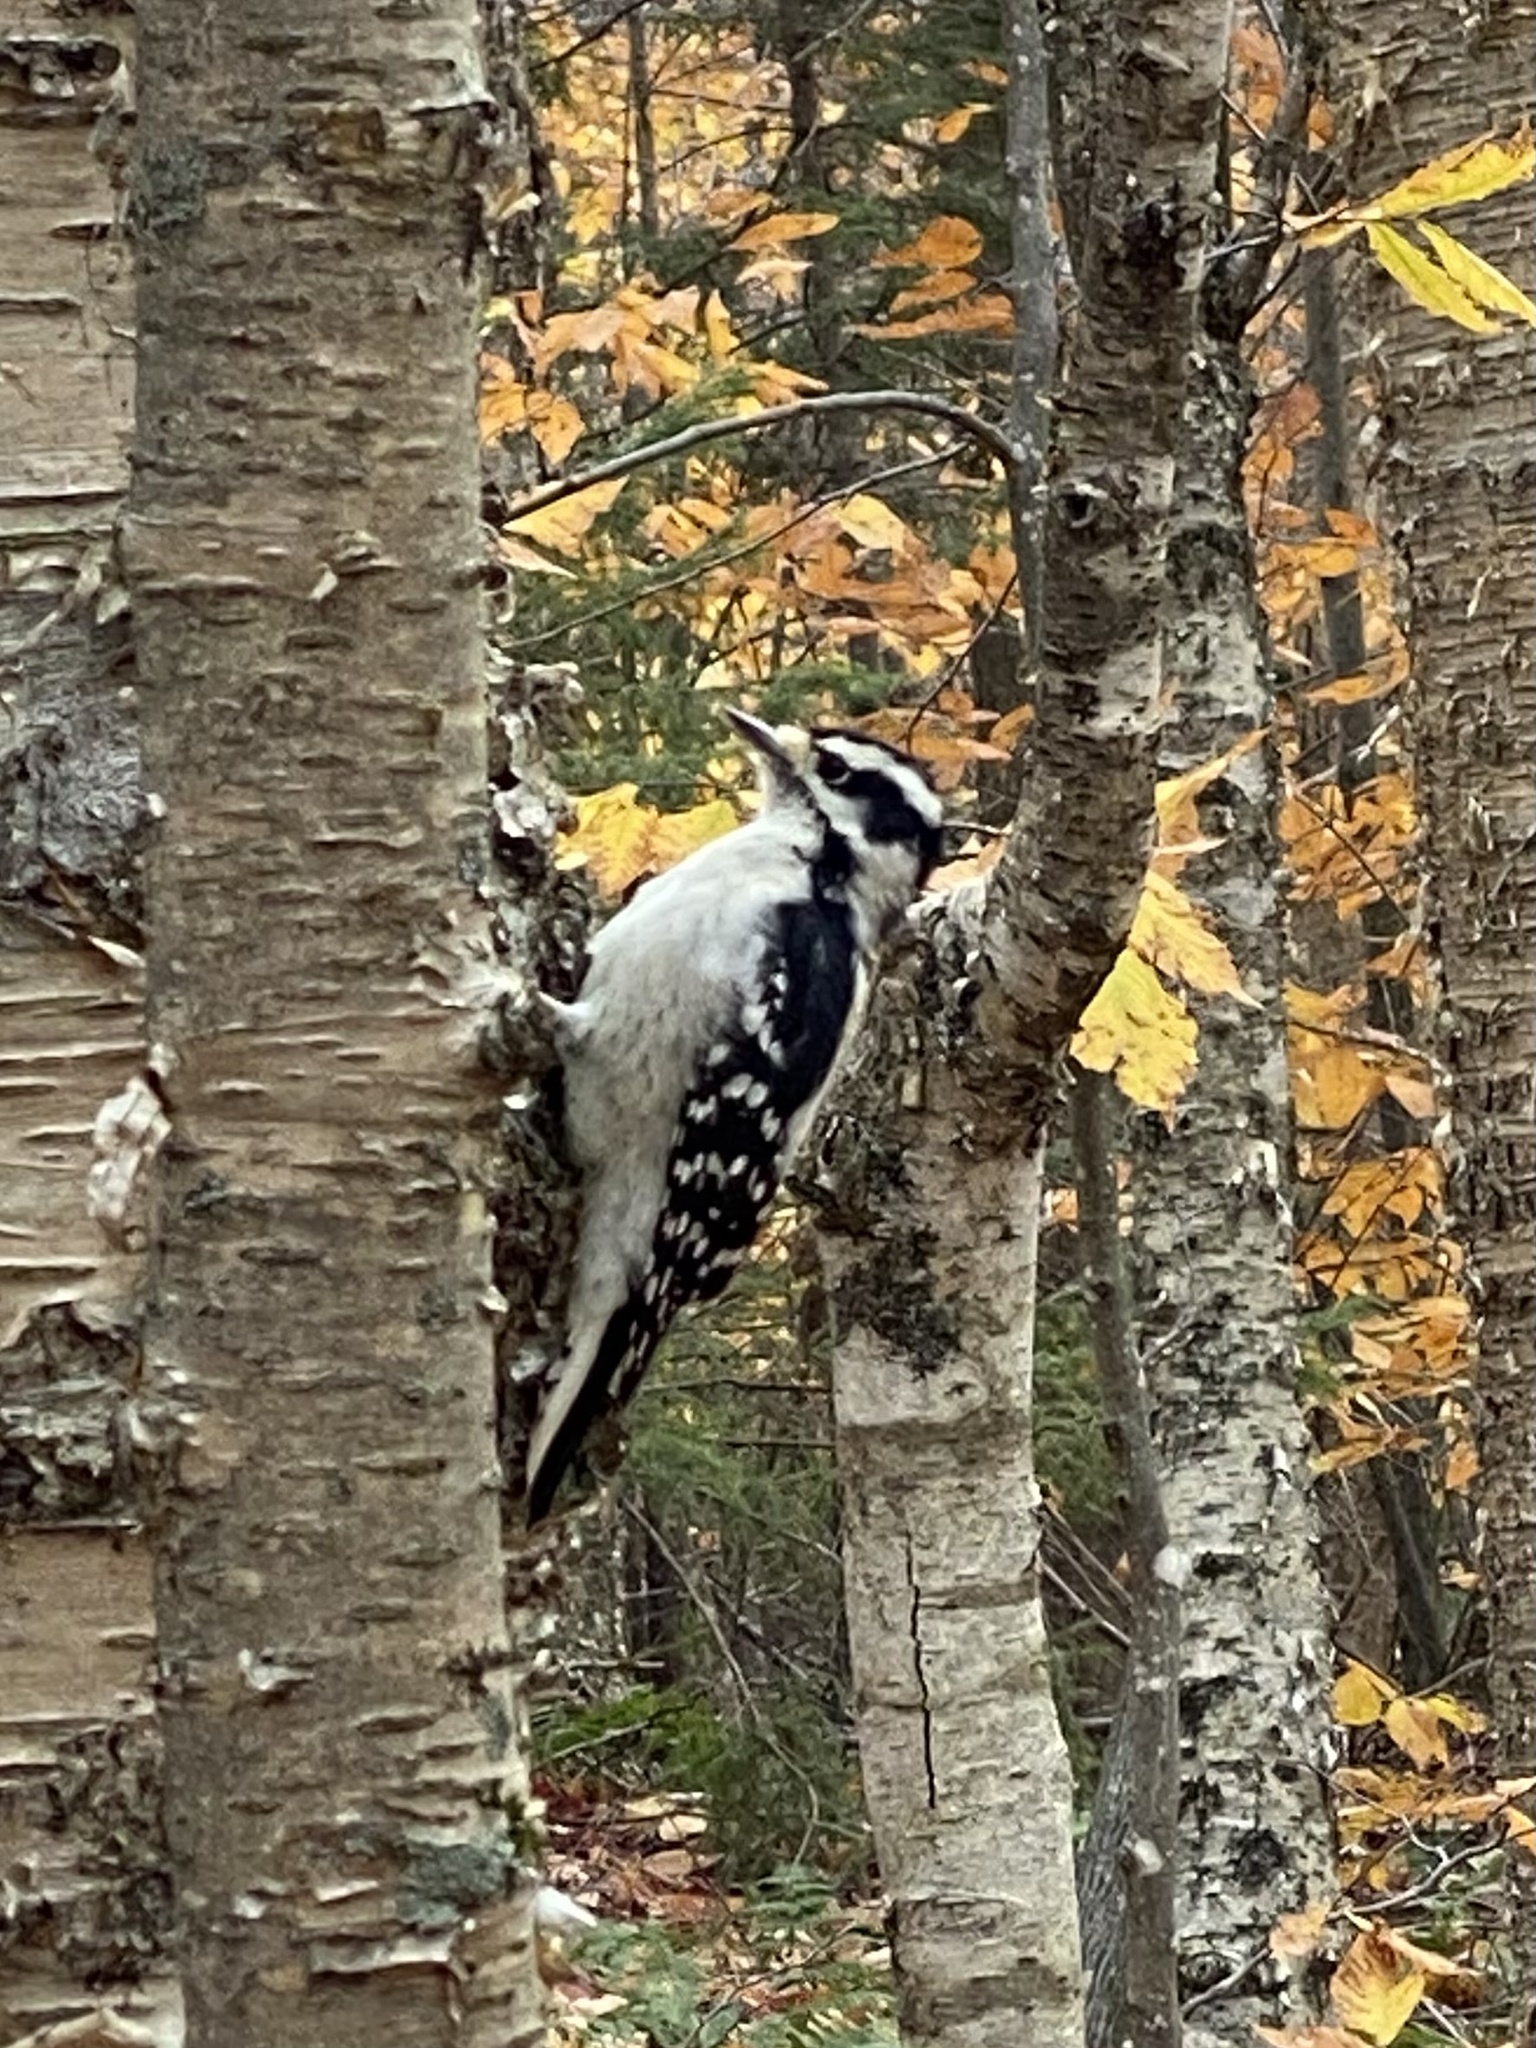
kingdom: Animalia
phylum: Chordata
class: Aves
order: Piciformes
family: Picidae
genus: Dryobates
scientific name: Dryobates pubescens
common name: Downy woodpecker
